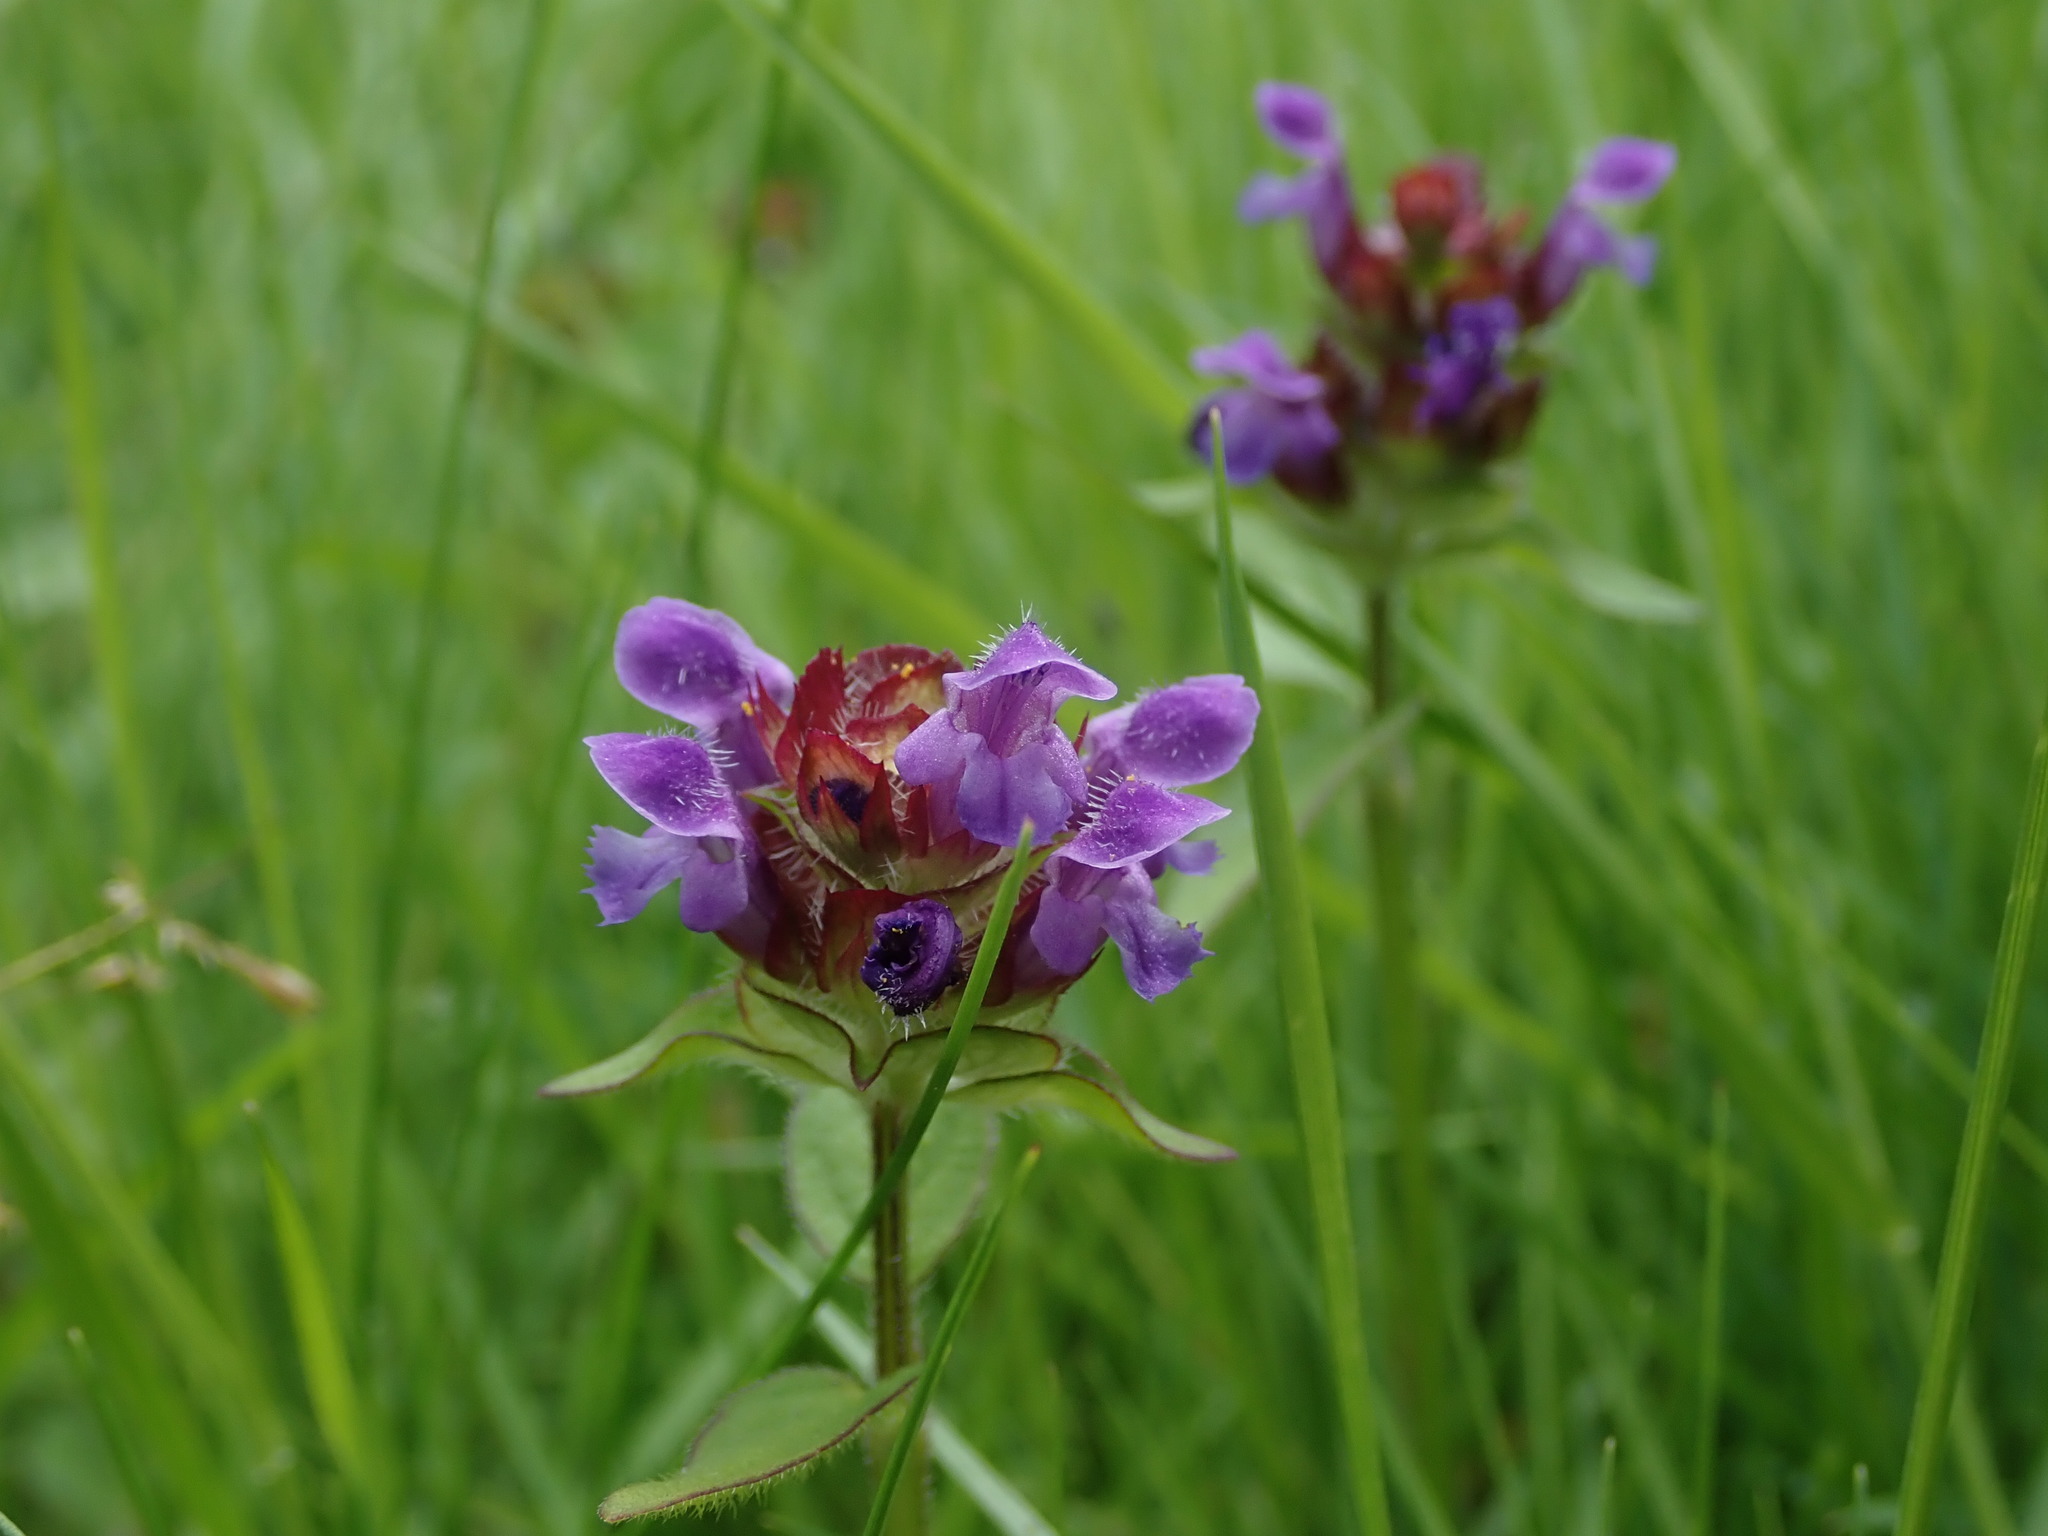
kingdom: Plantae
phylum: Tracheophyta
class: Magnoliopsida
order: Lamiales
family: Lamiaceae
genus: Prunella
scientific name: Prunella vulgaris
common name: Heal-all
